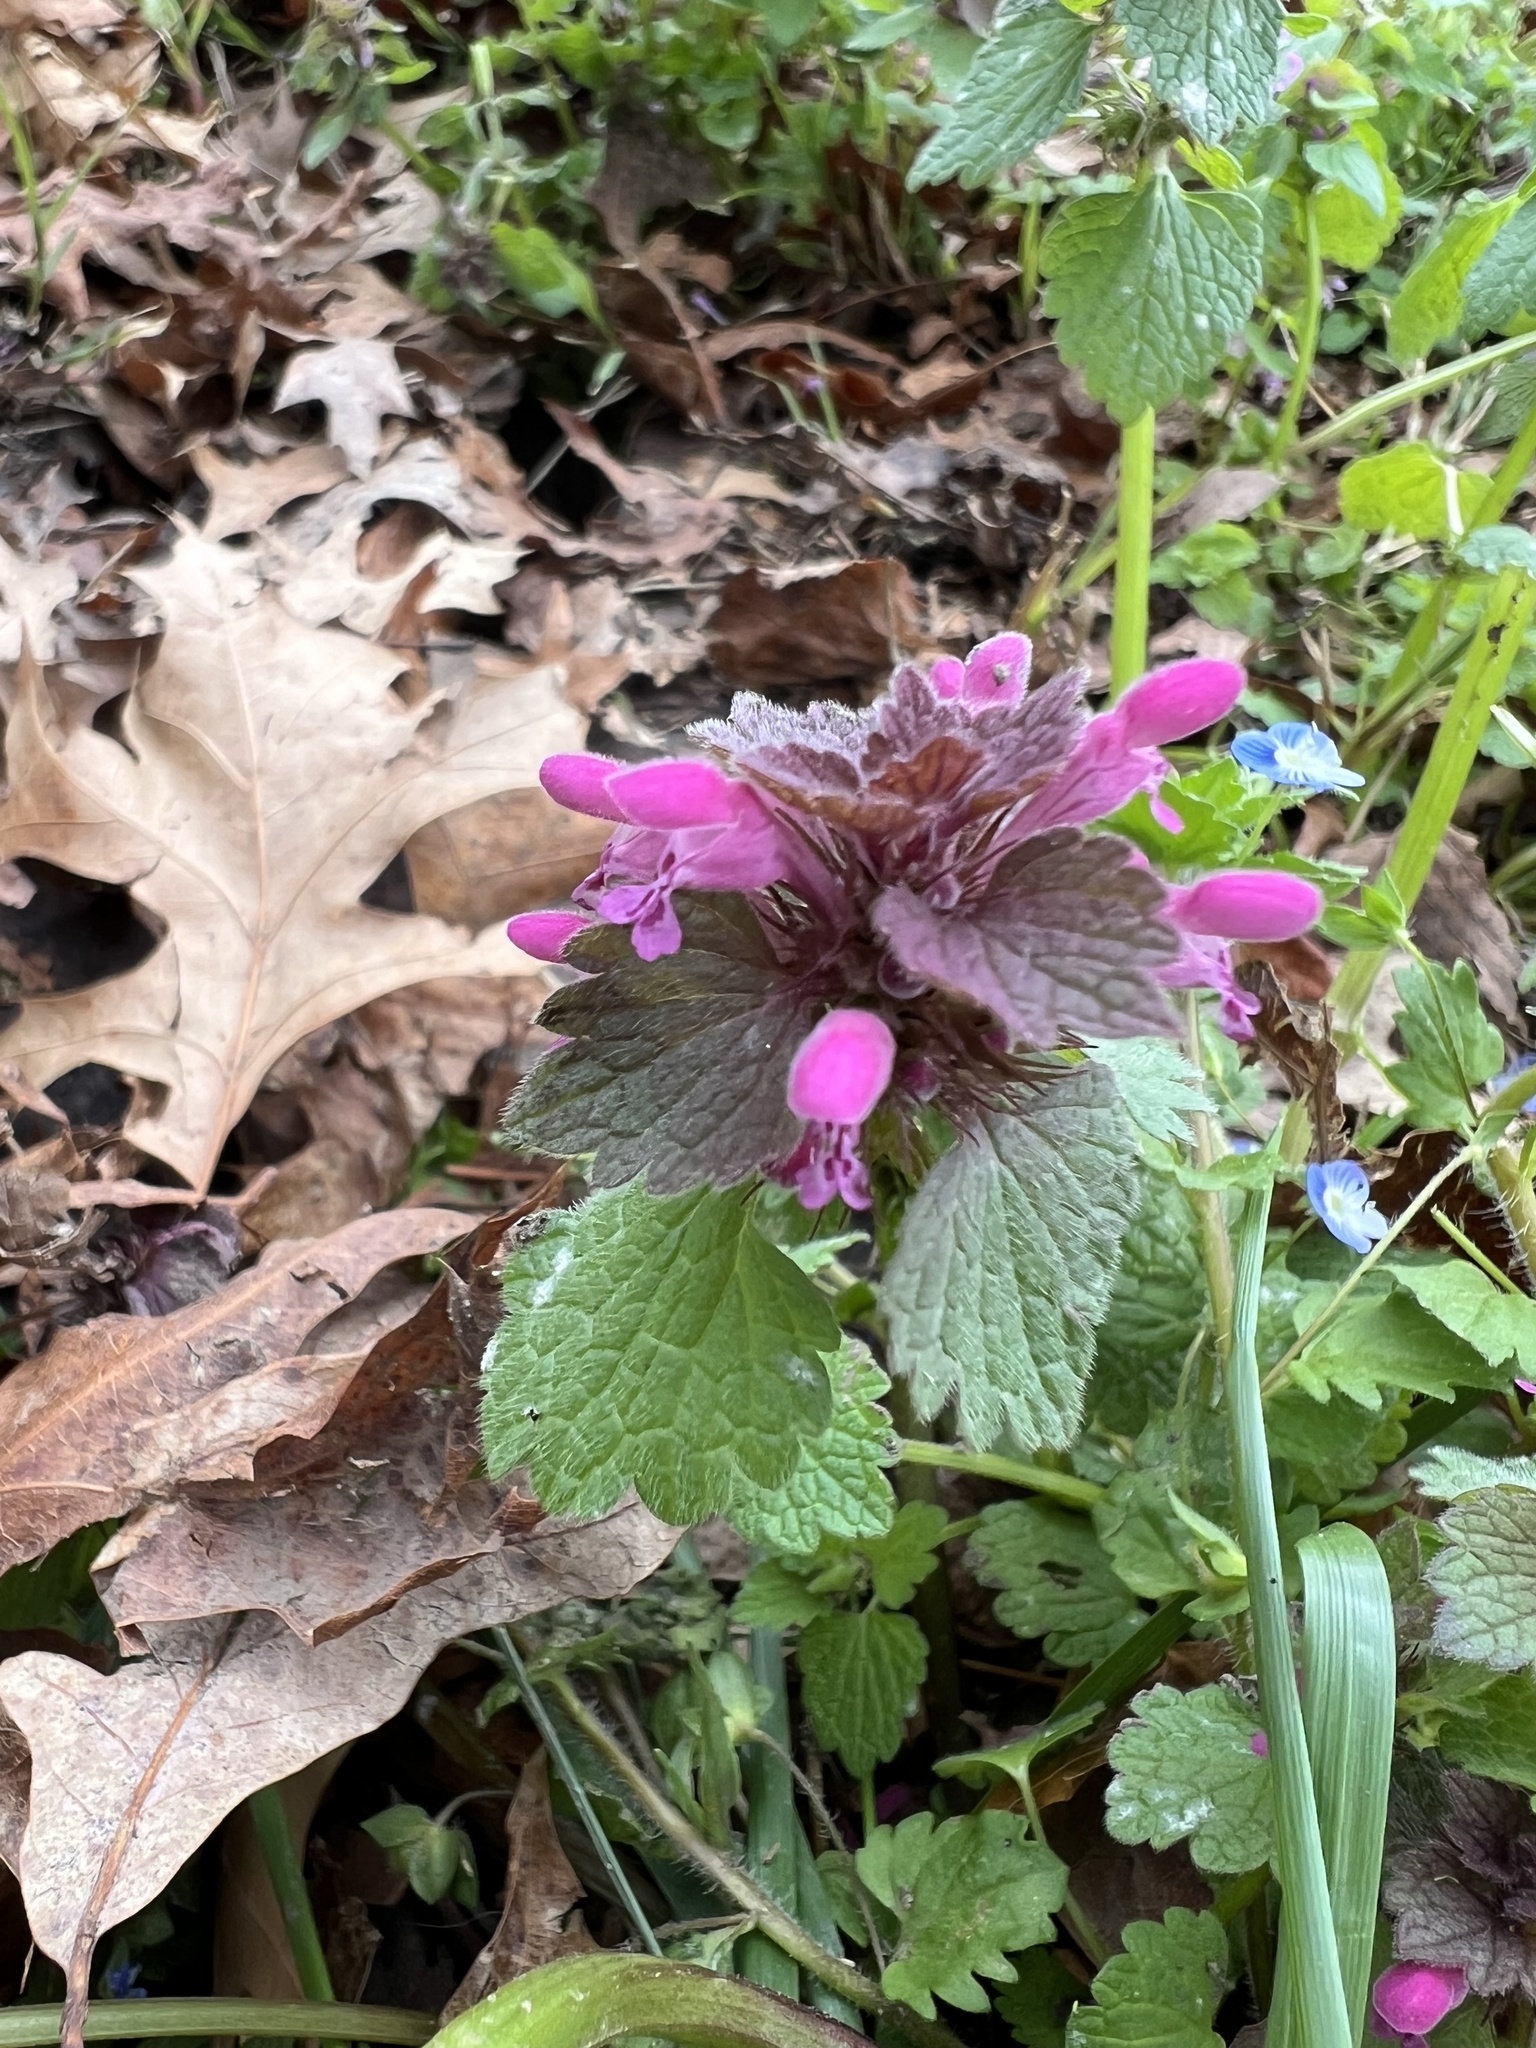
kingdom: Plantae
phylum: Tracheophyta
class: Magnoliopsida
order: Lamiales
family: Lamiaceae
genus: Lamium
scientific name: Lamium purpureum
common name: Red dead-nettle
